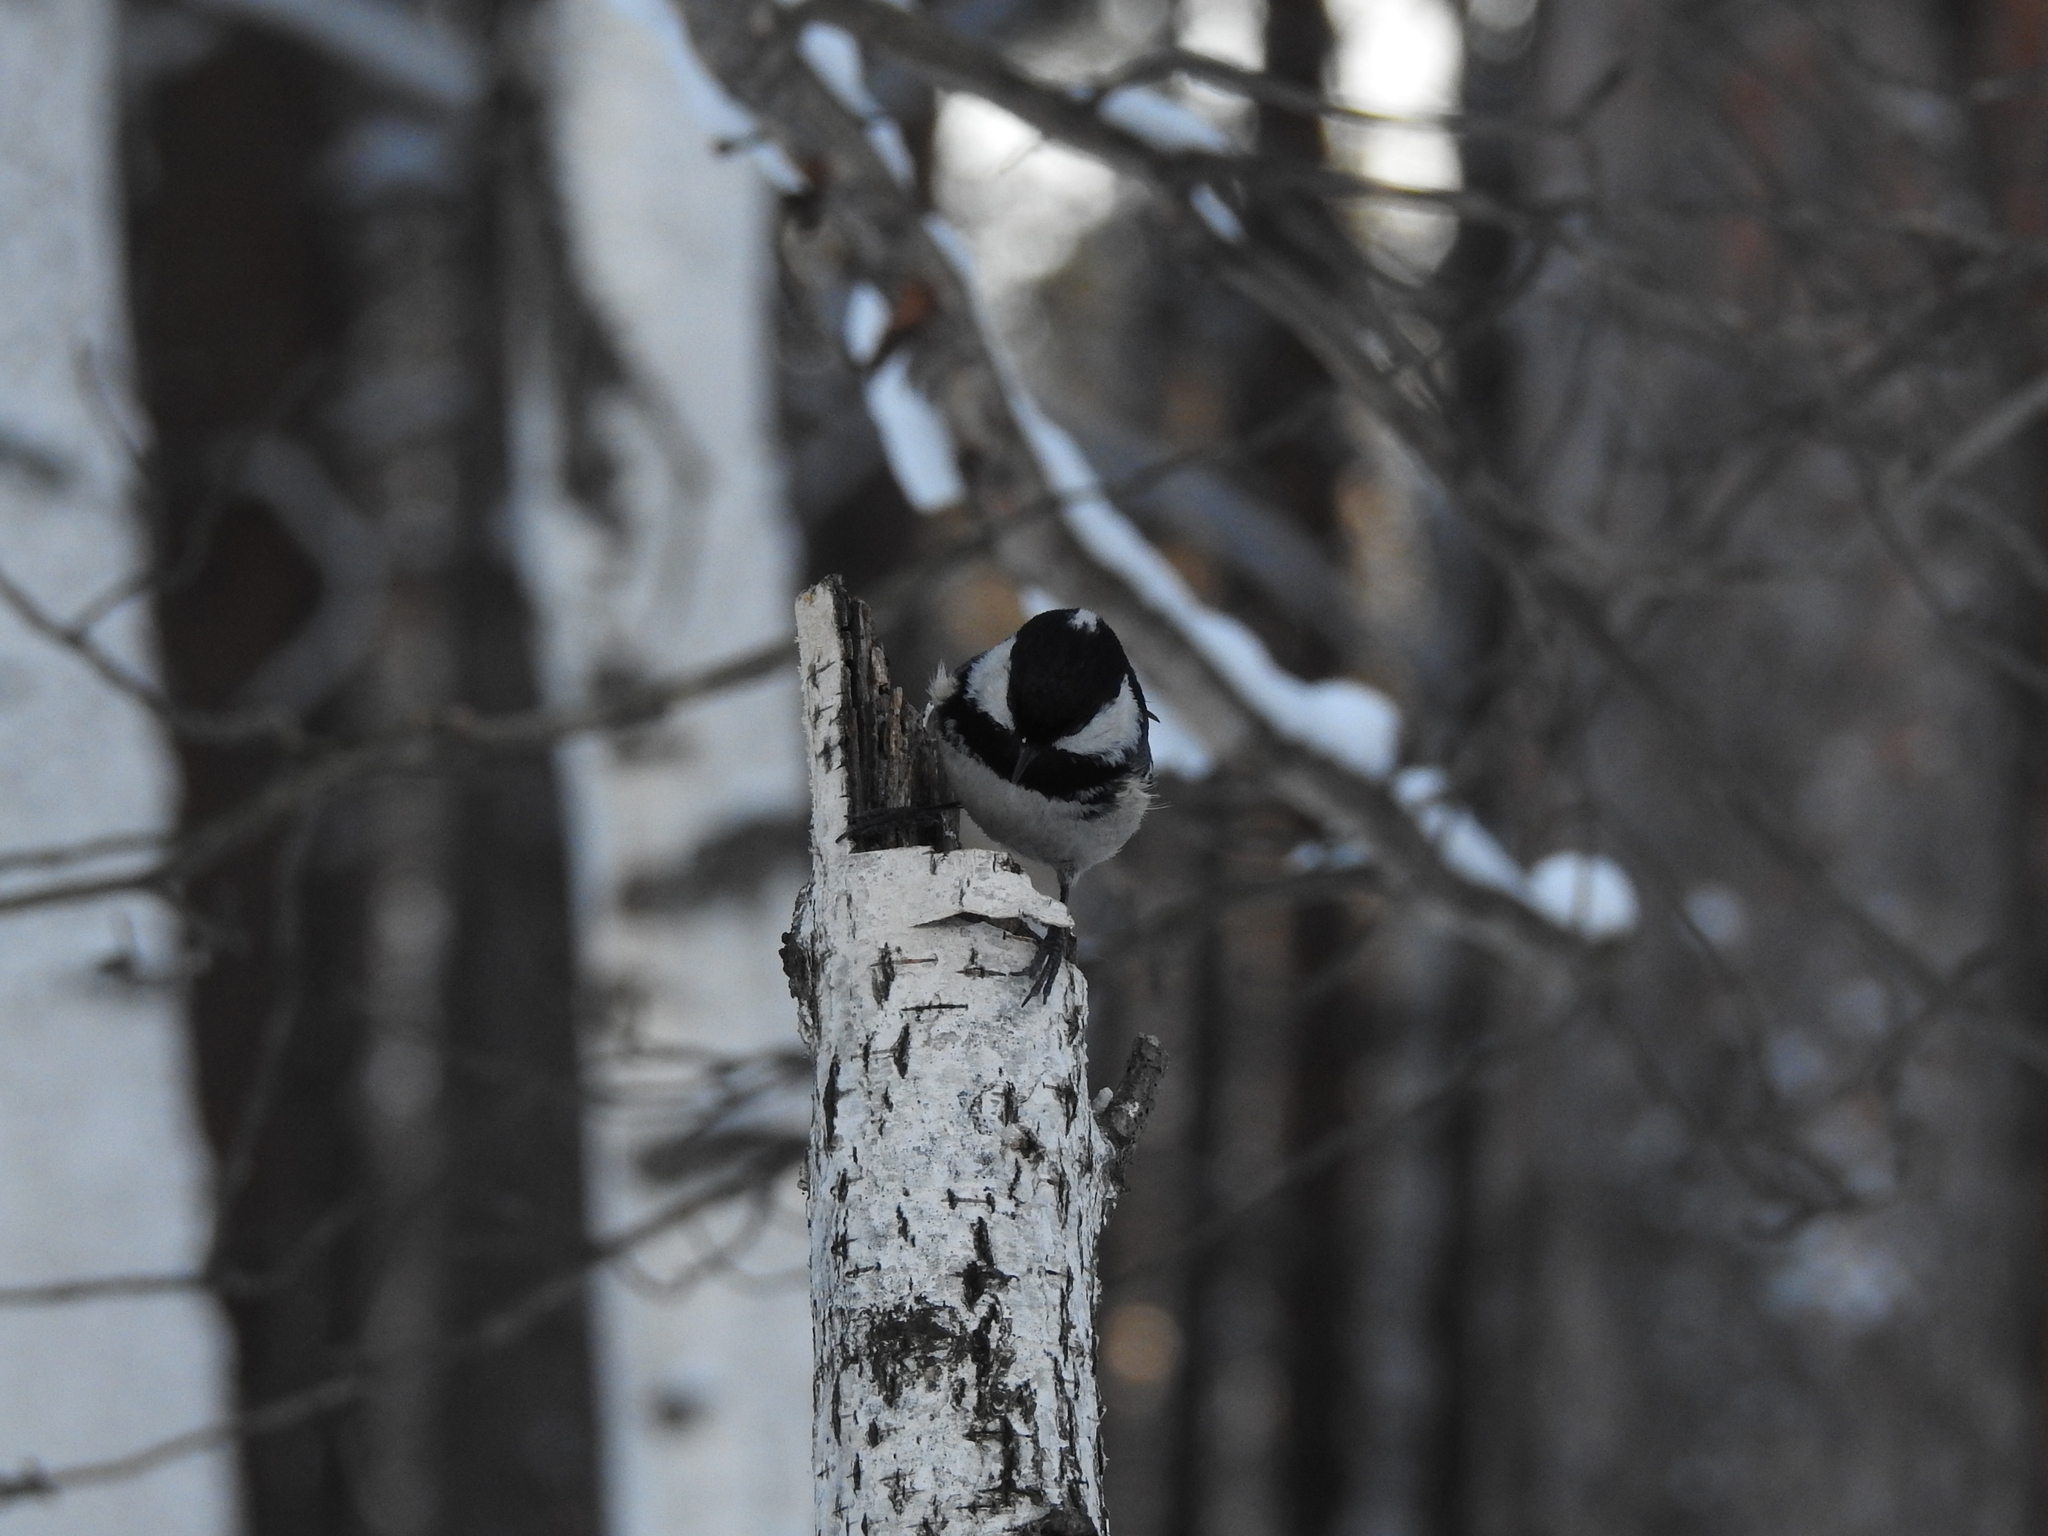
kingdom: Animalia
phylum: Chordata
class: Aves
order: Passeriformes
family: Paridae
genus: Periparus
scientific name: Periparus ater
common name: Coal tit
